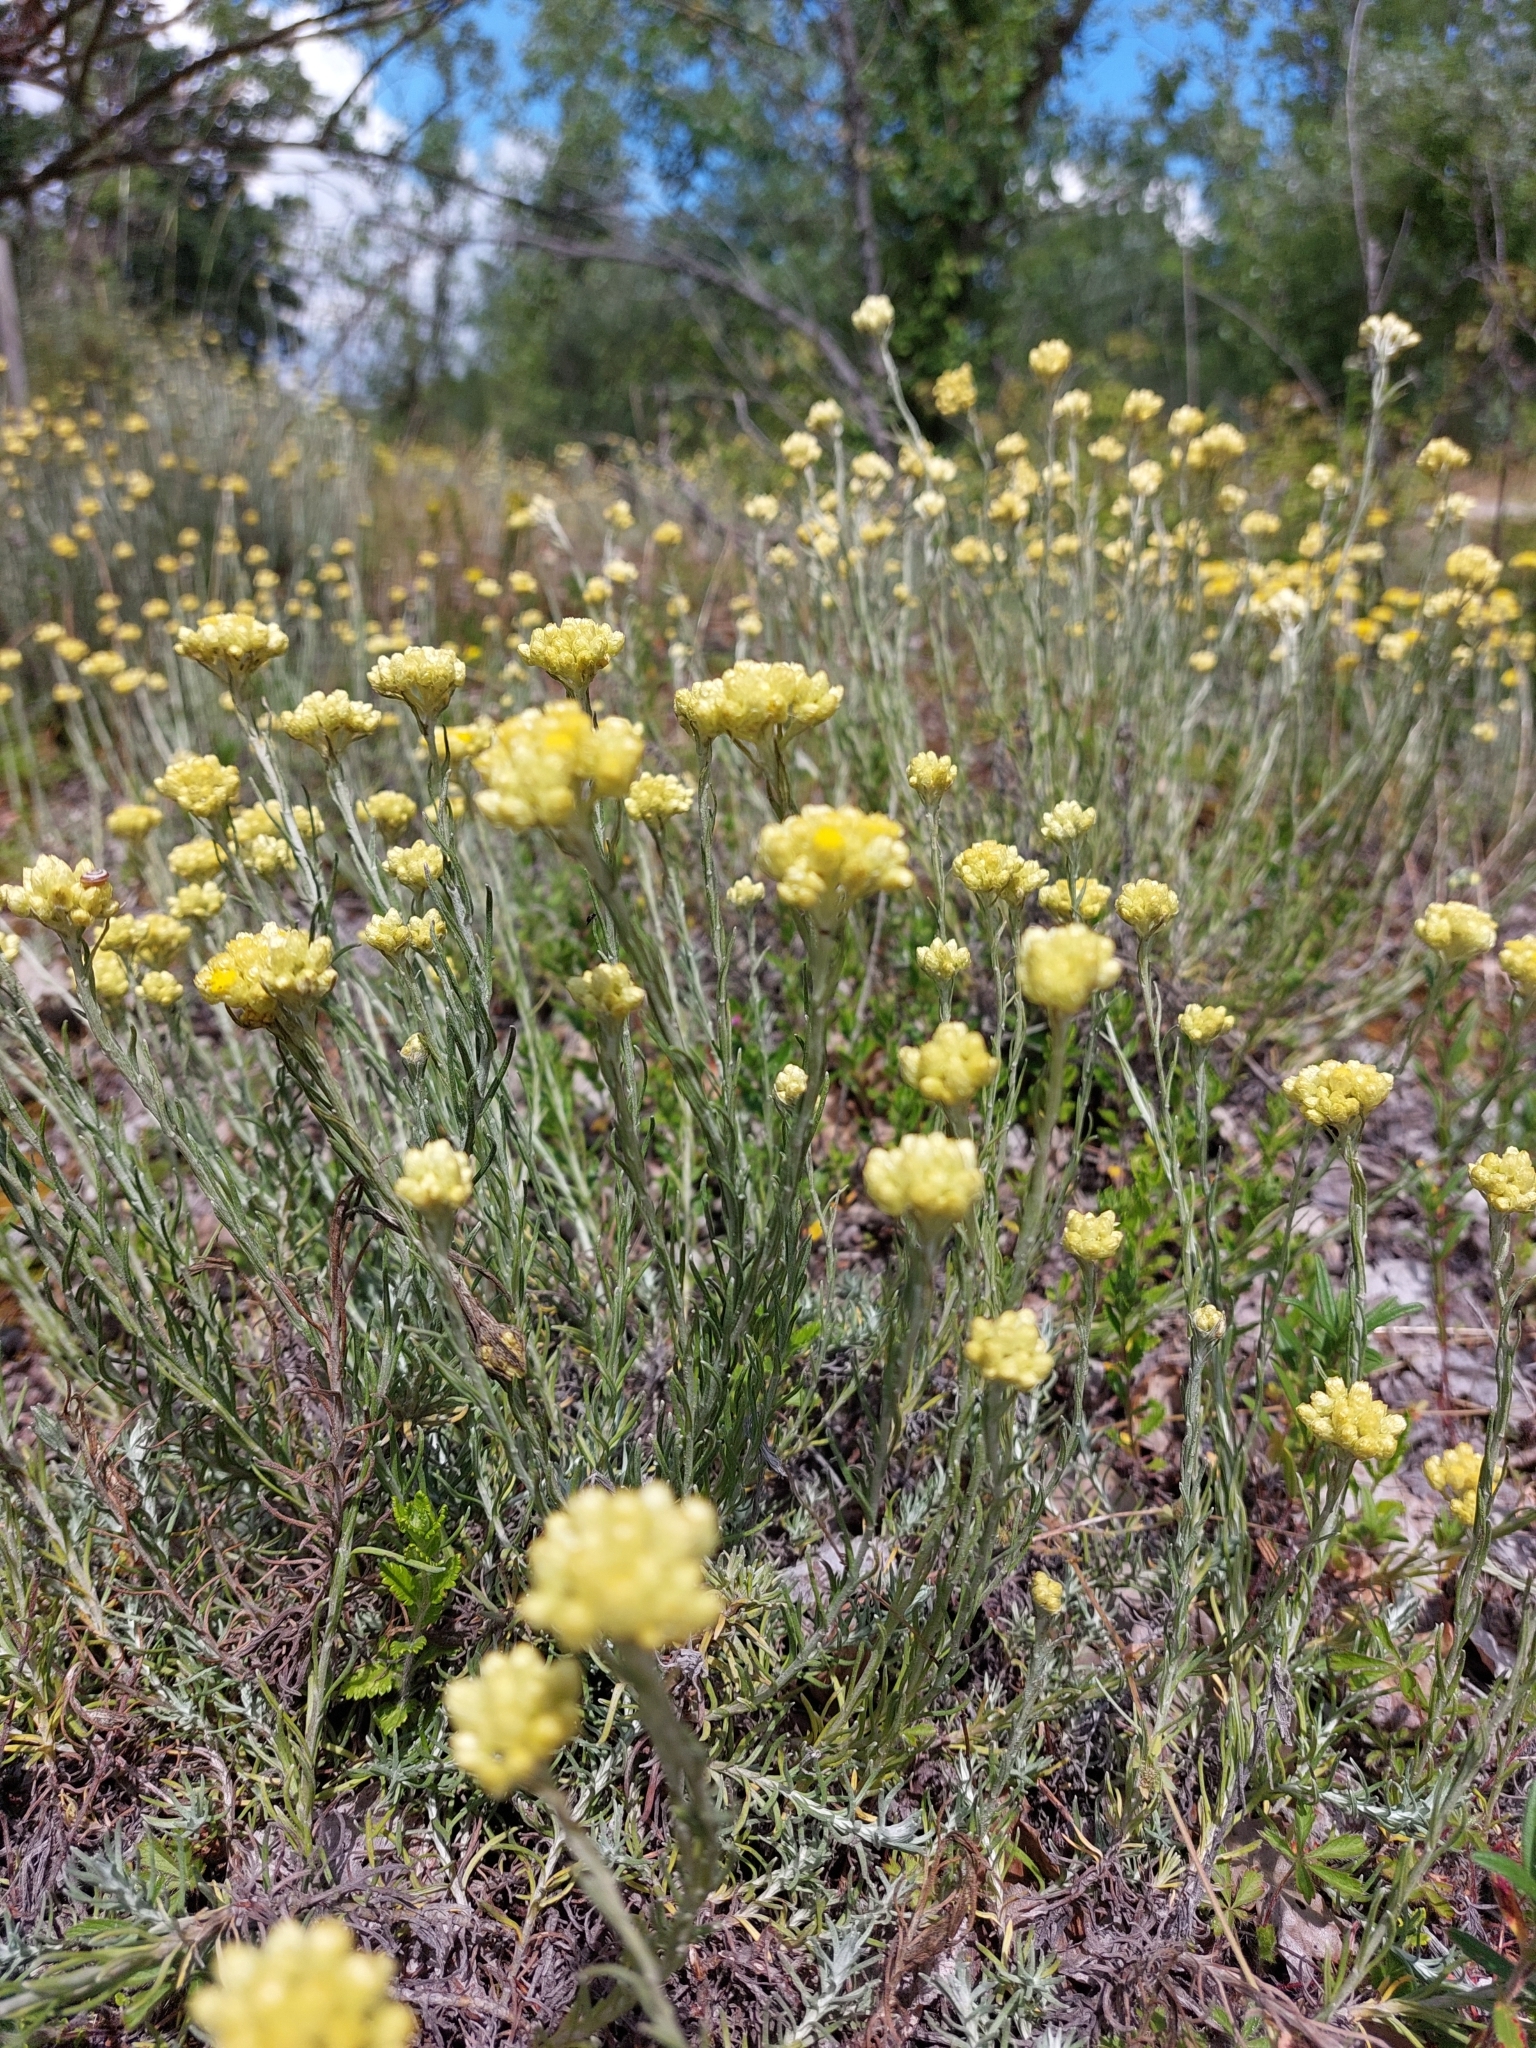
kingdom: Plantae
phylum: Tracheophyta
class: Magnoliopsida
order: Asterales
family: Asteraceae
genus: Helichrysum
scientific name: Helichrysum stoechas
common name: Goldilocks
